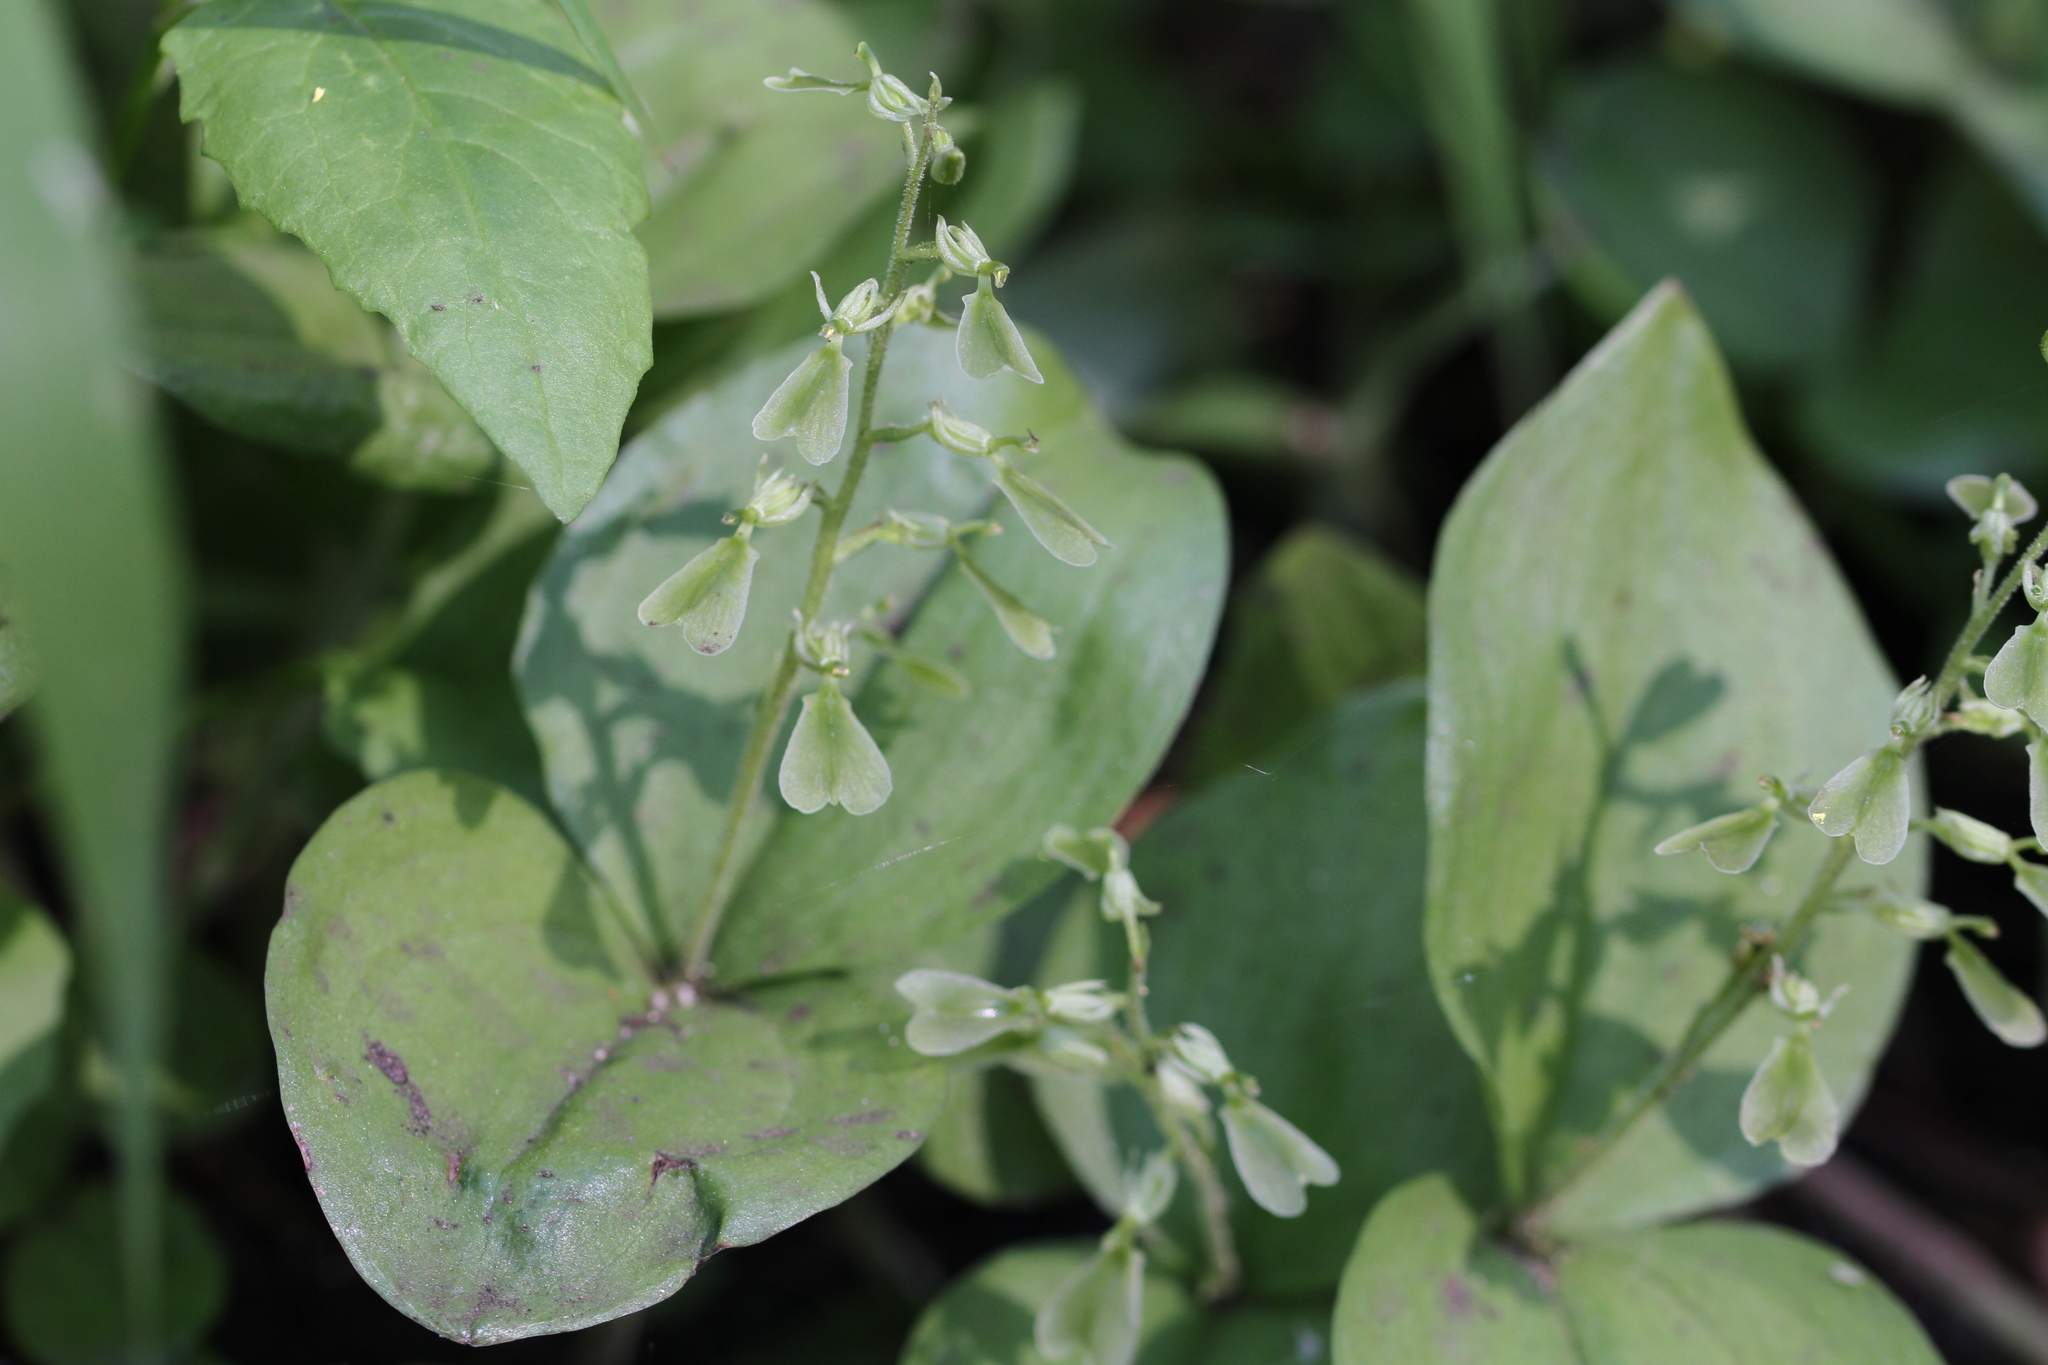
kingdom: Plantae
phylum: Tracheophyta
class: Liliopsida
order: Asparagales
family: Orchidaceae
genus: Neottia
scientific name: Neottia convallarioides
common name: Broadleaf twayblade
